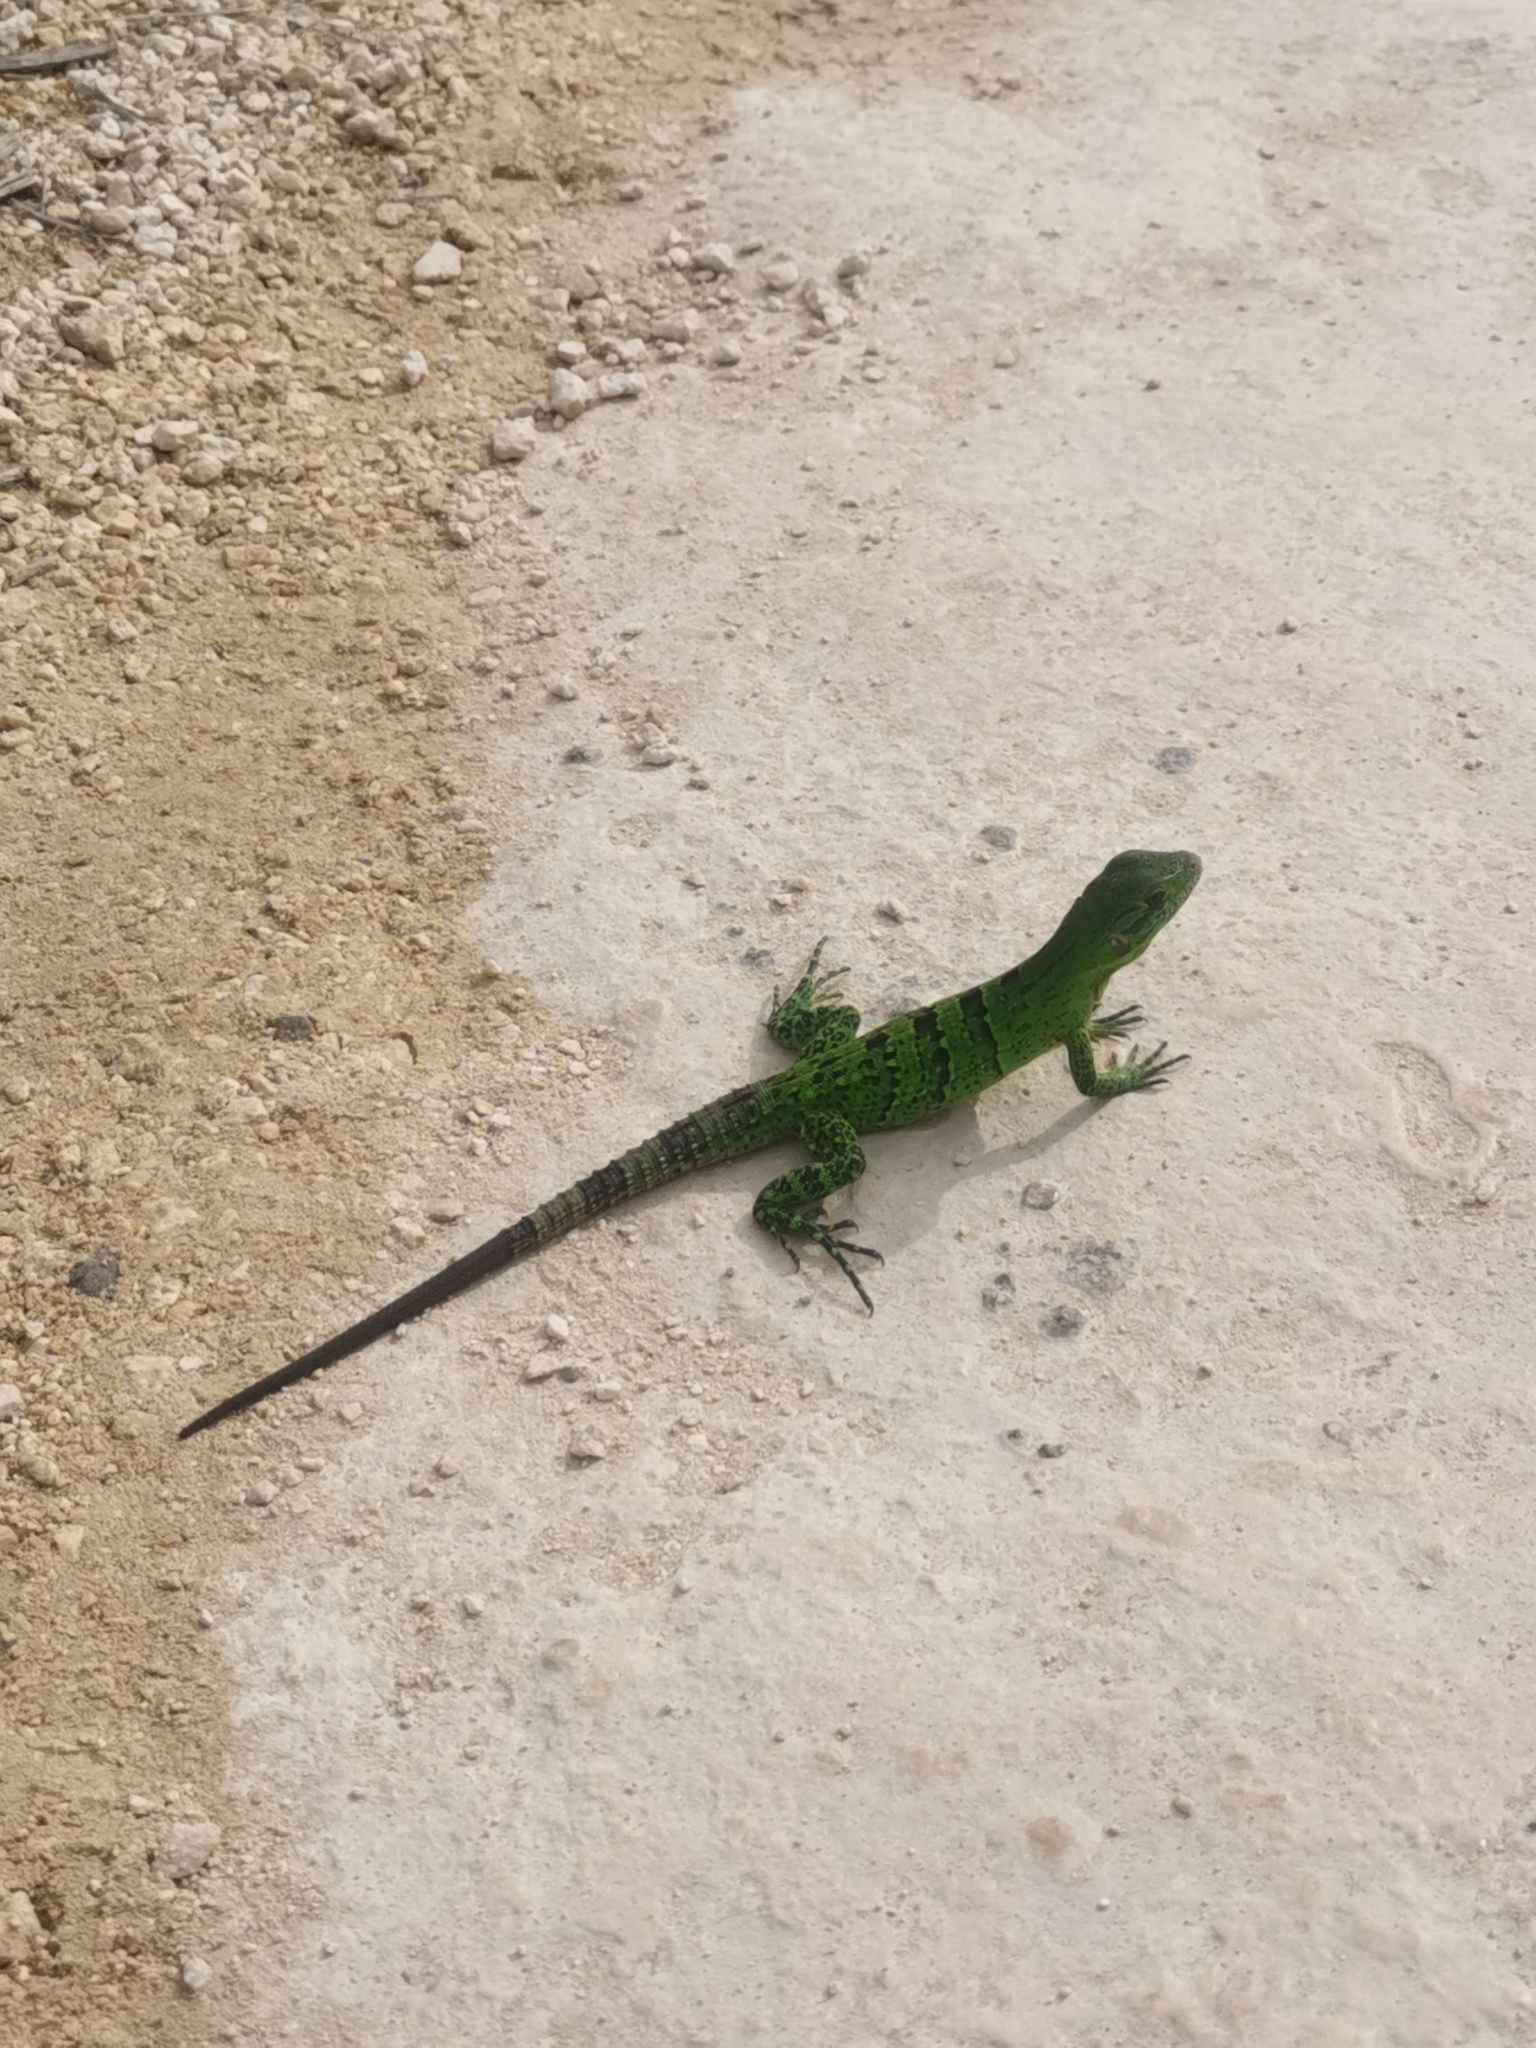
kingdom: Animalia
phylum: Chordata
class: Squamata
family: Iguanidae
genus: Ctenosaura
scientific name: Ctenosaura similis
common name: Black spiny-tailed iguana
